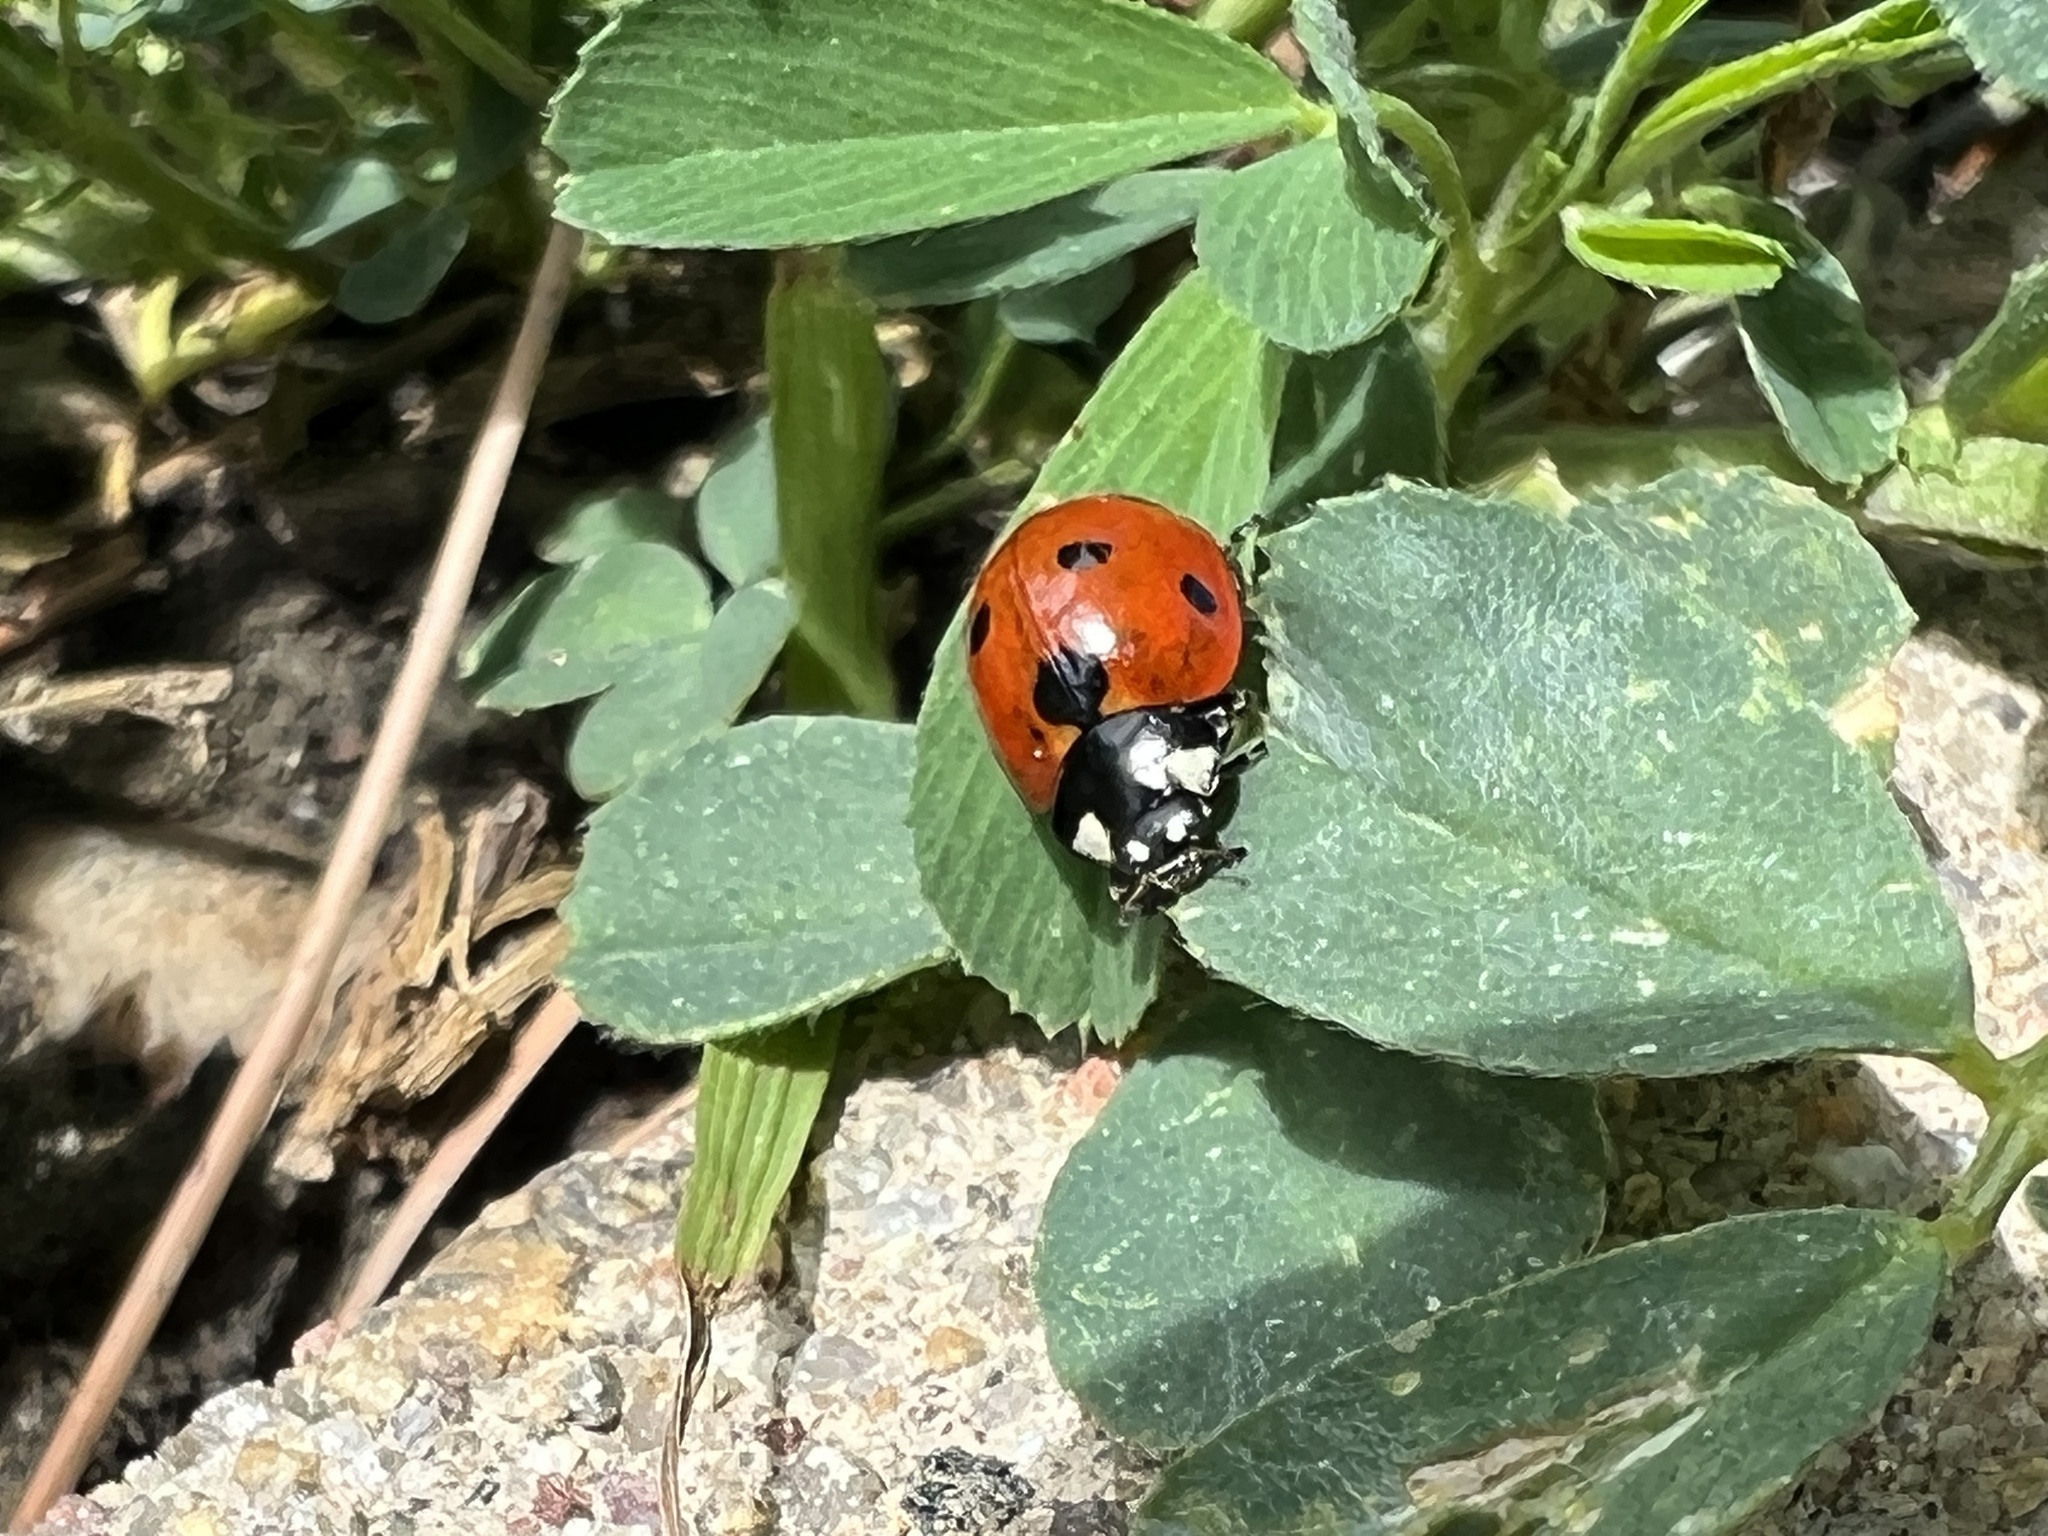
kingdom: Animalia
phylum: Arthropoda
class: Insecta
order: Coleoptera
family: Coccinellidae
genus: Coccinella
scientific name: Coccinella septempunctata
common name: Sevenspotted lady beetle
